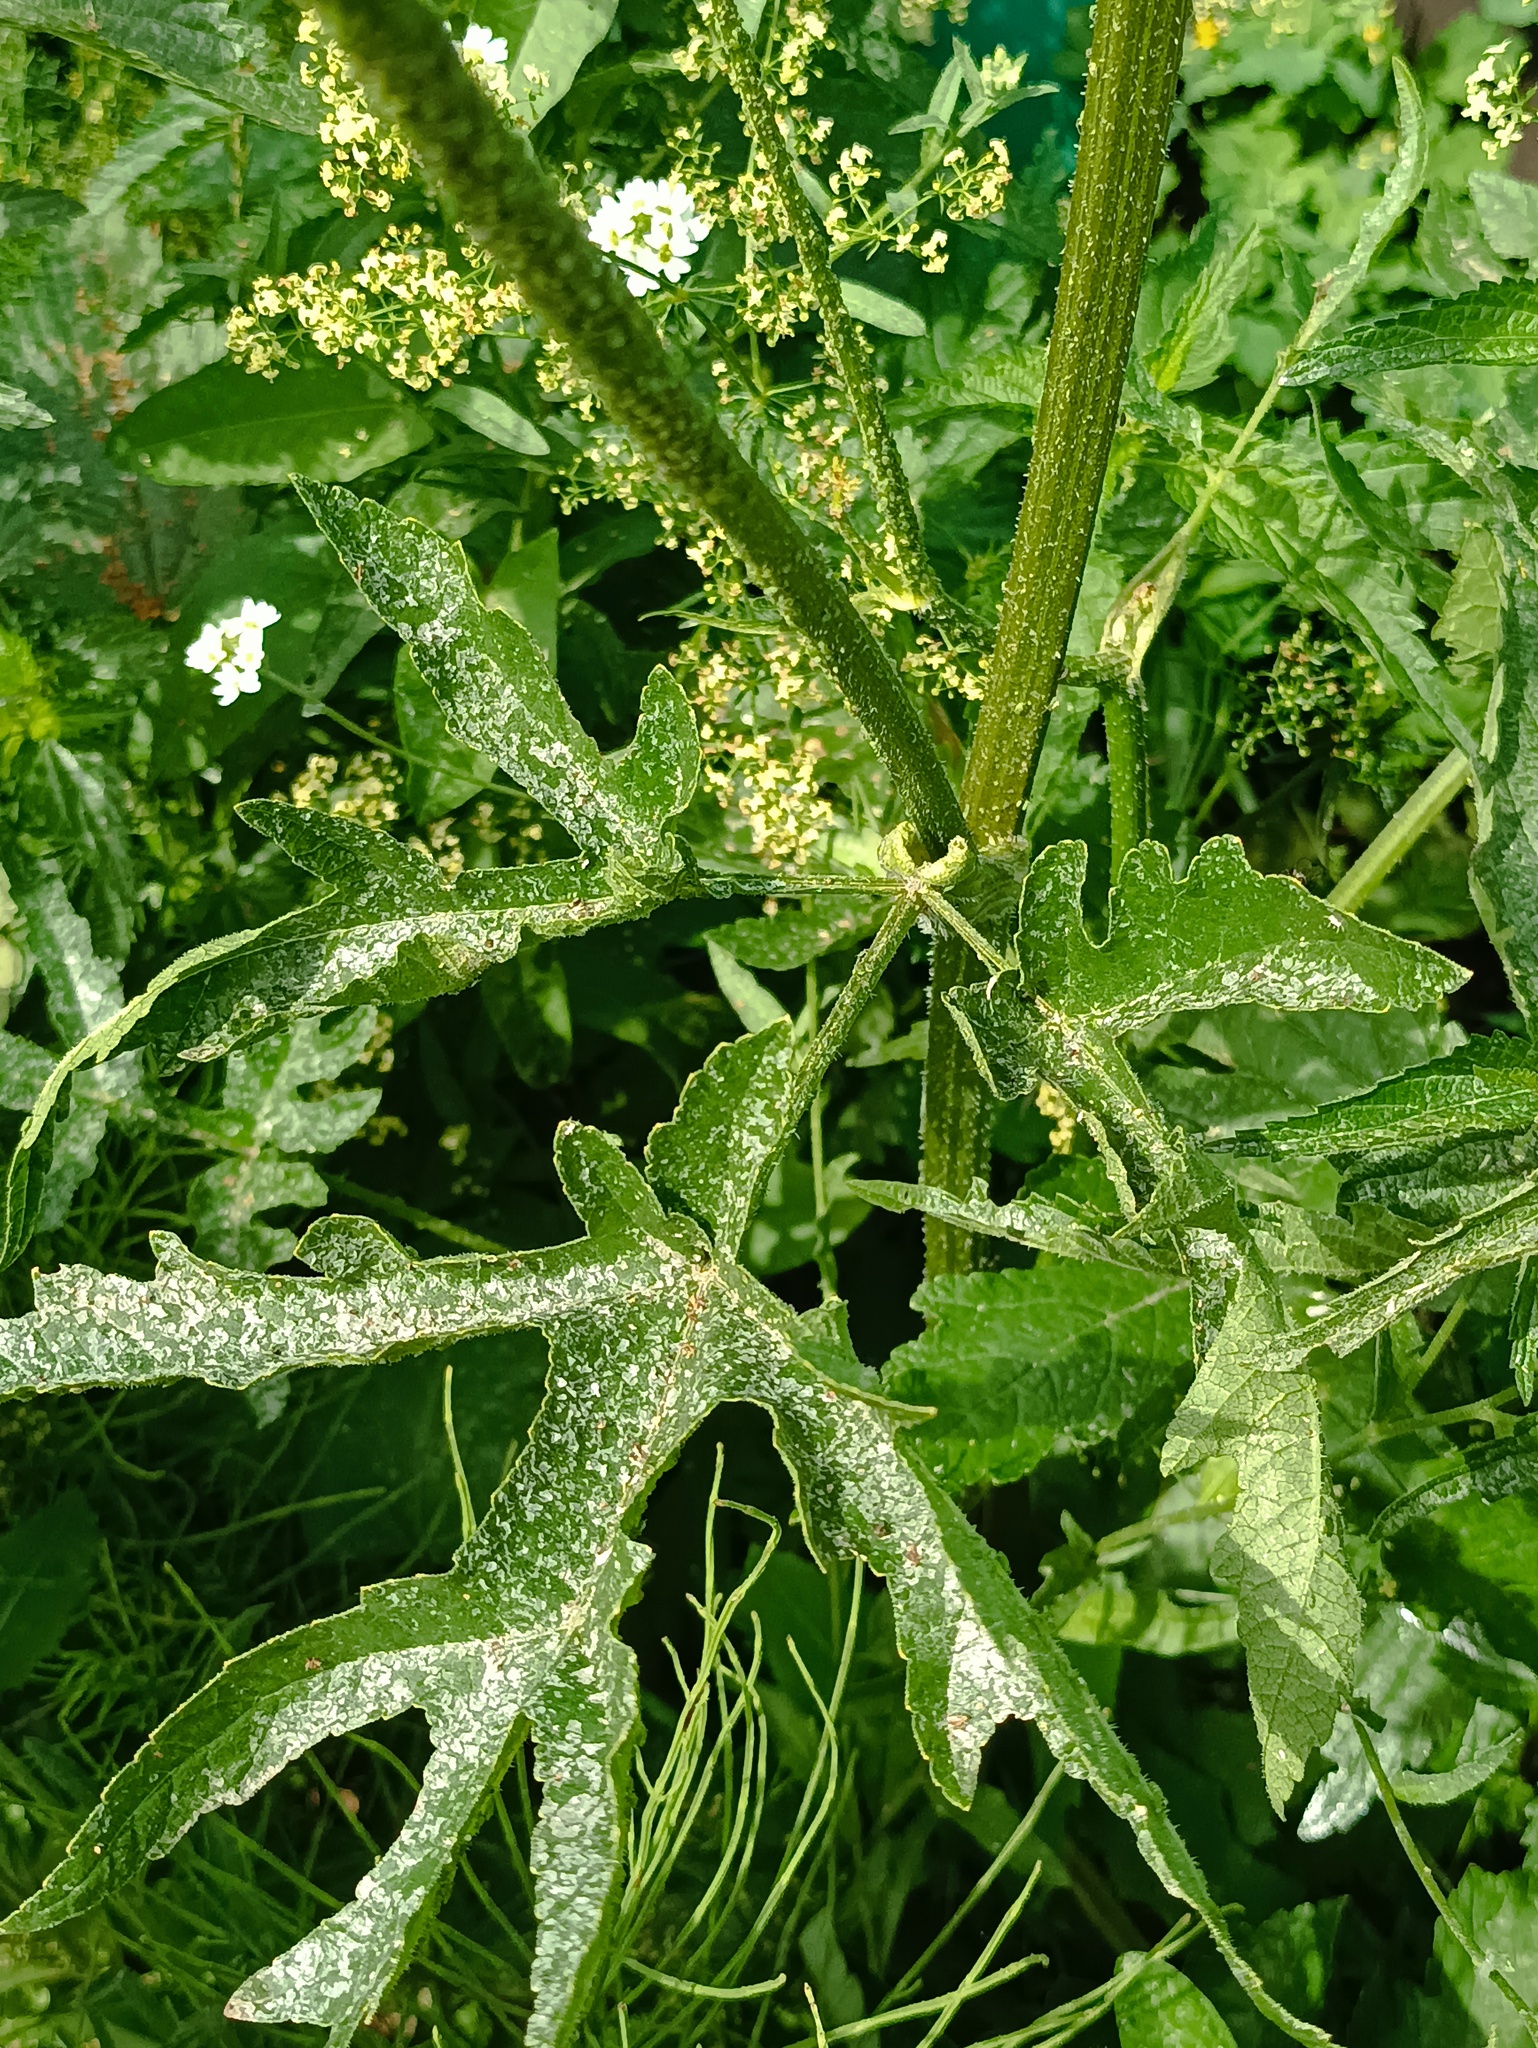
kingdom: Plantae
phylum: Tracheophyta
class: Magnoliopsida
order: Apiales
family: Apiaceae
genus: Heracleum
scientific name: Heracleum sphondylium
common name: Hogweed
